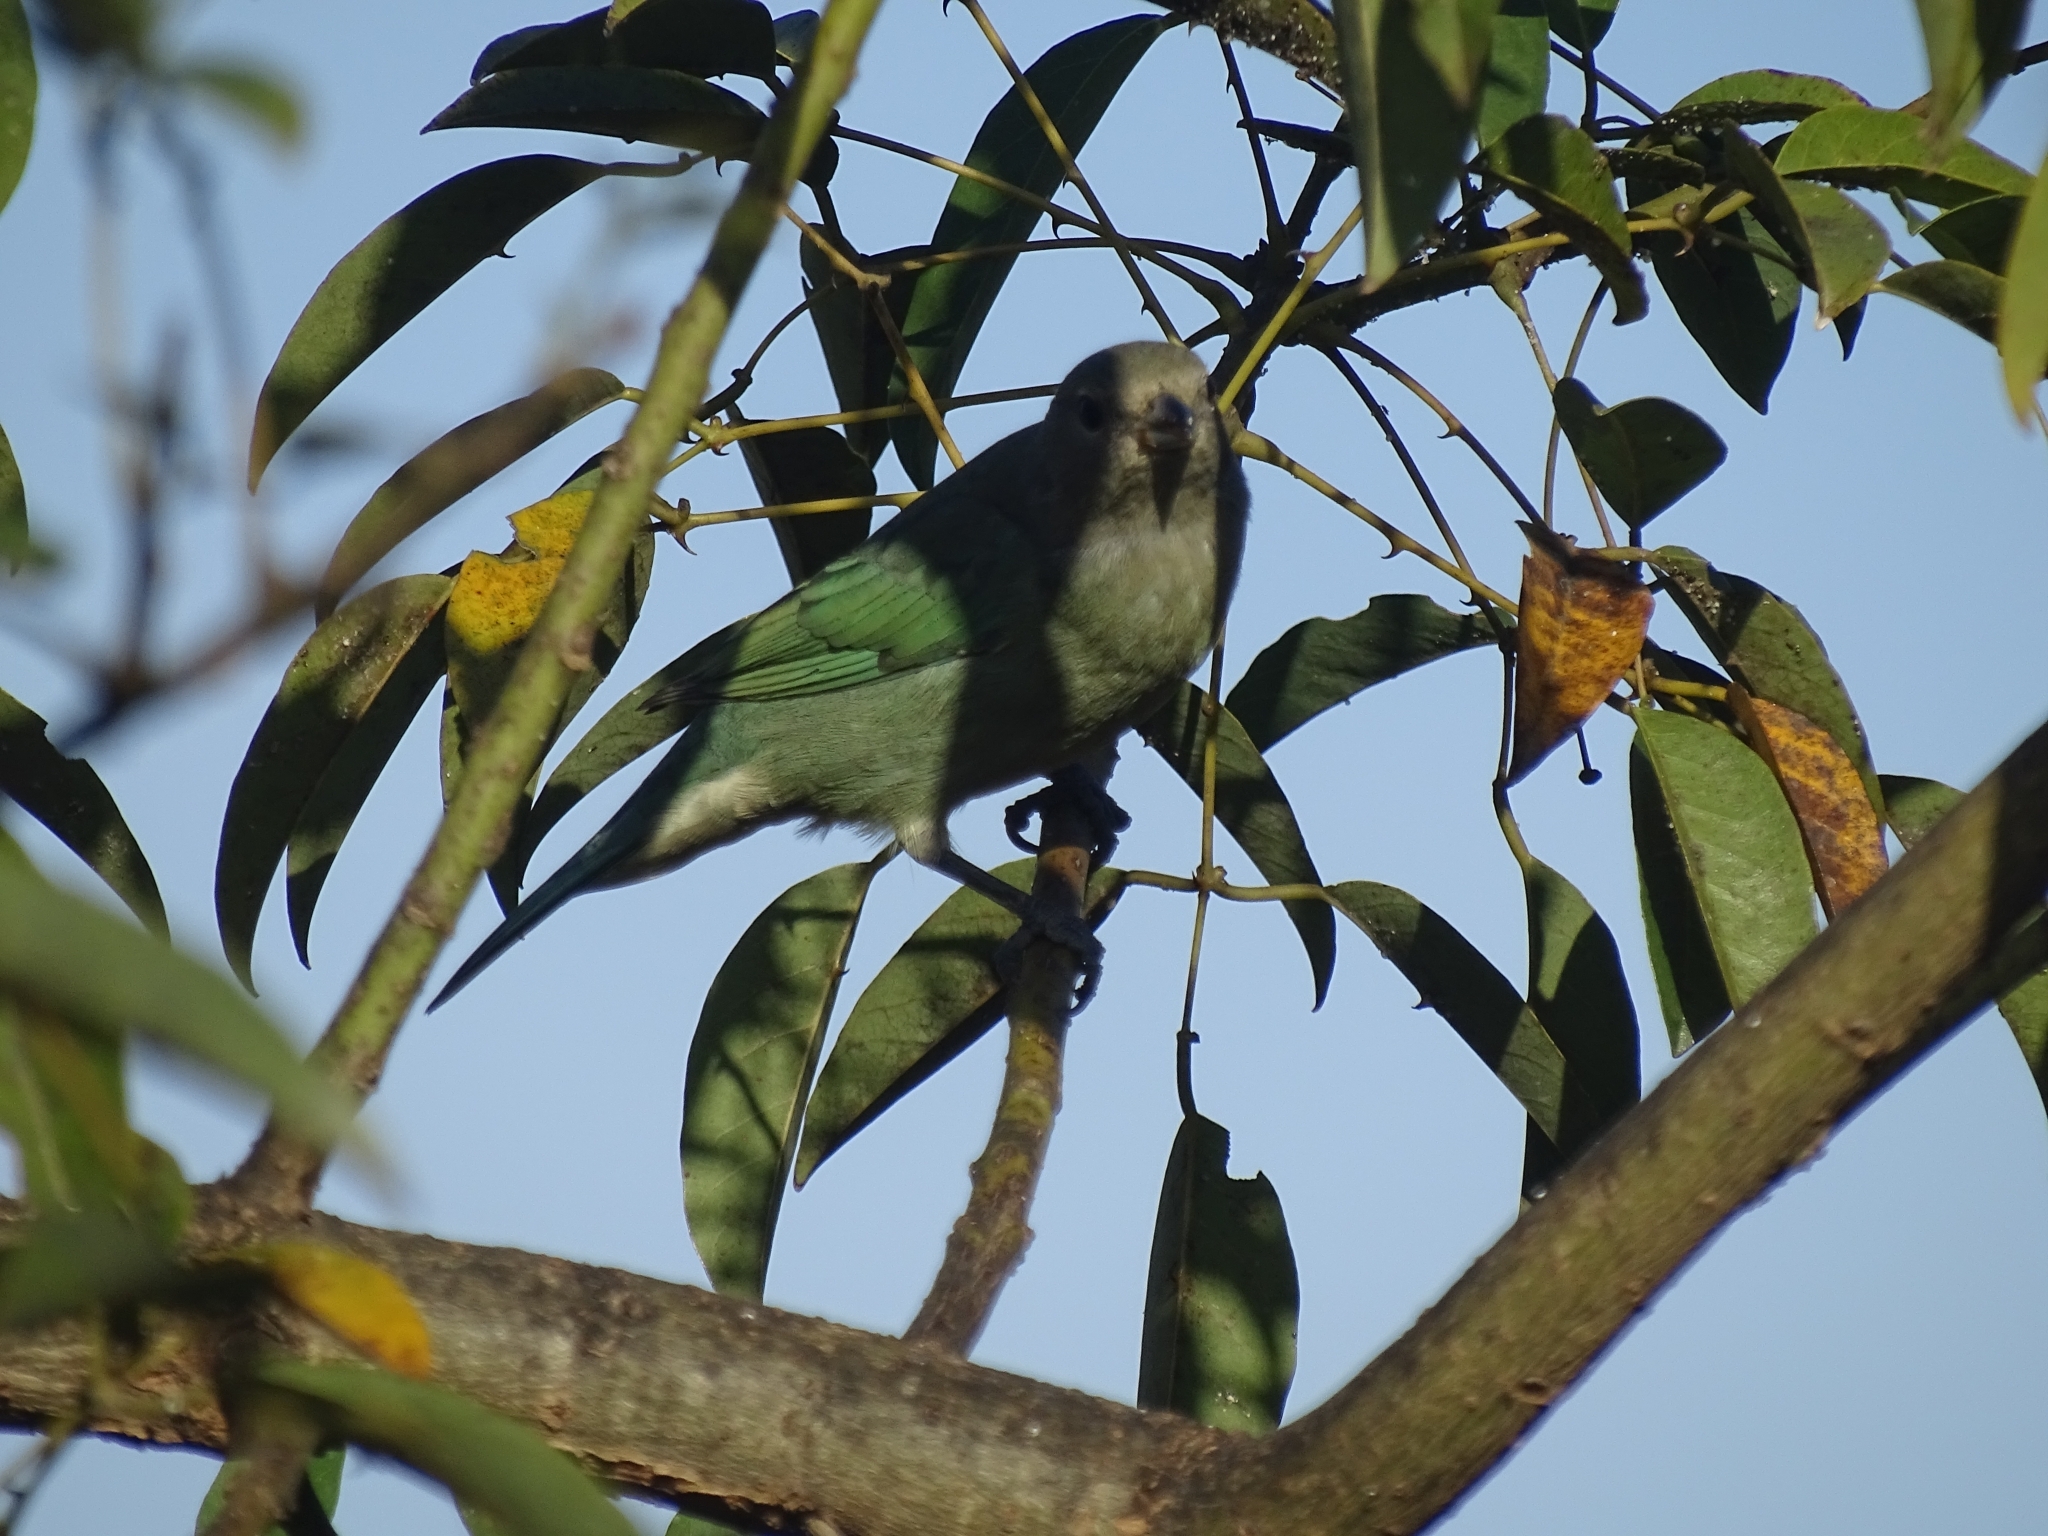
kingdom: Animalia
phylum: Chordata
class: Aves
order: Passeriformes
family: Thraupidae
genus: Thraupis
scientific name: Thraupis sayaca
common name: Sayaca tanager
